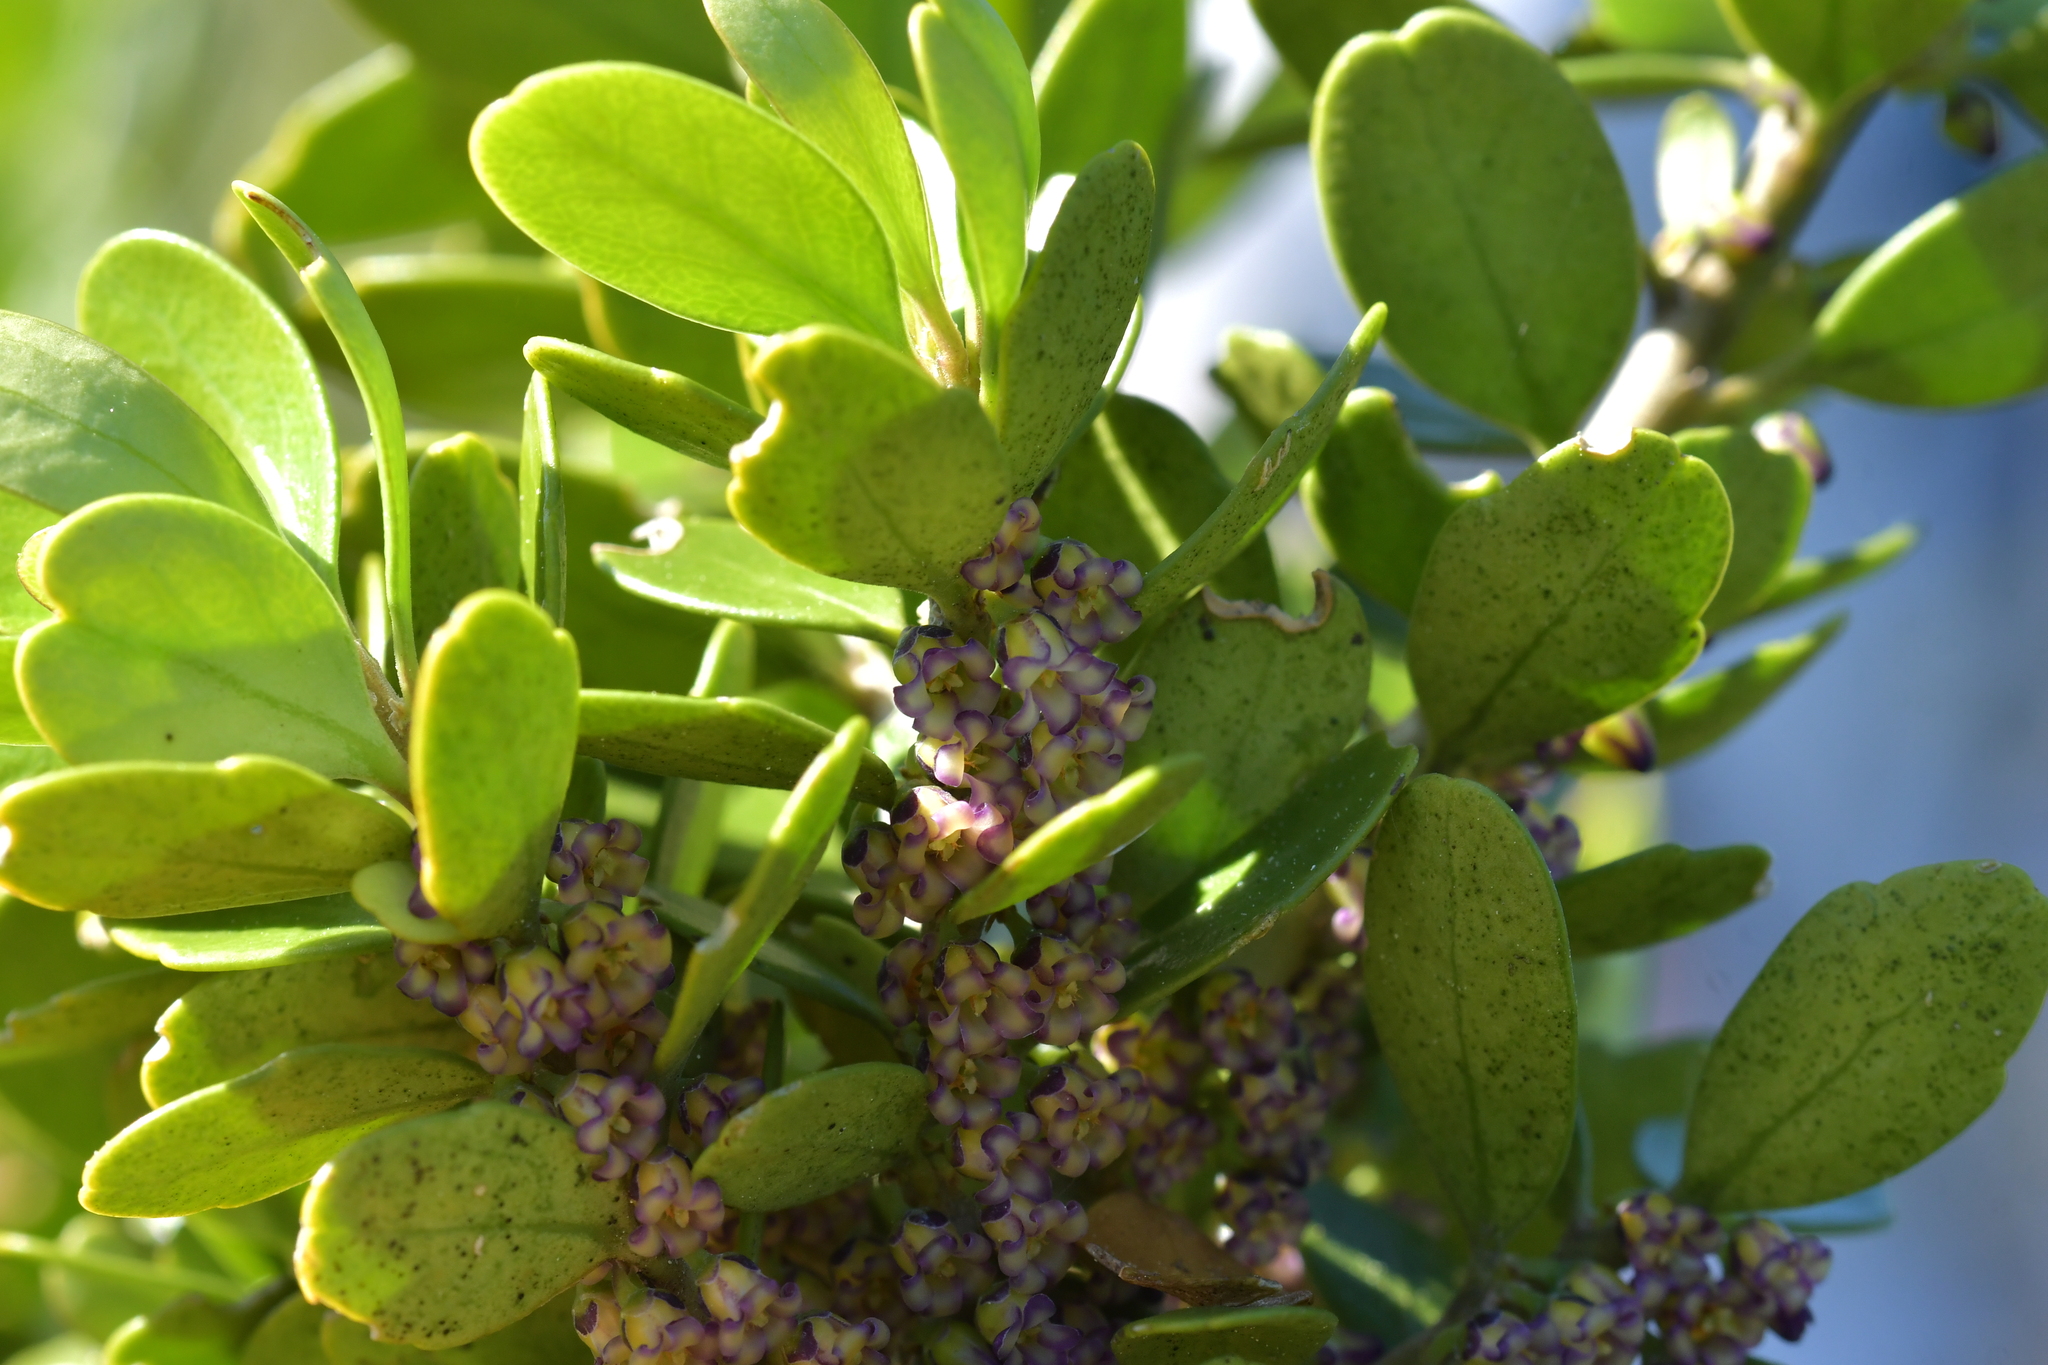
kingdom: Plantae
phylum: Tracheophyta
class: Magnoliopsida
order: Malpighiales
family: Violaceae
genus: Melicytus
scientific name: Melicytus orarius
